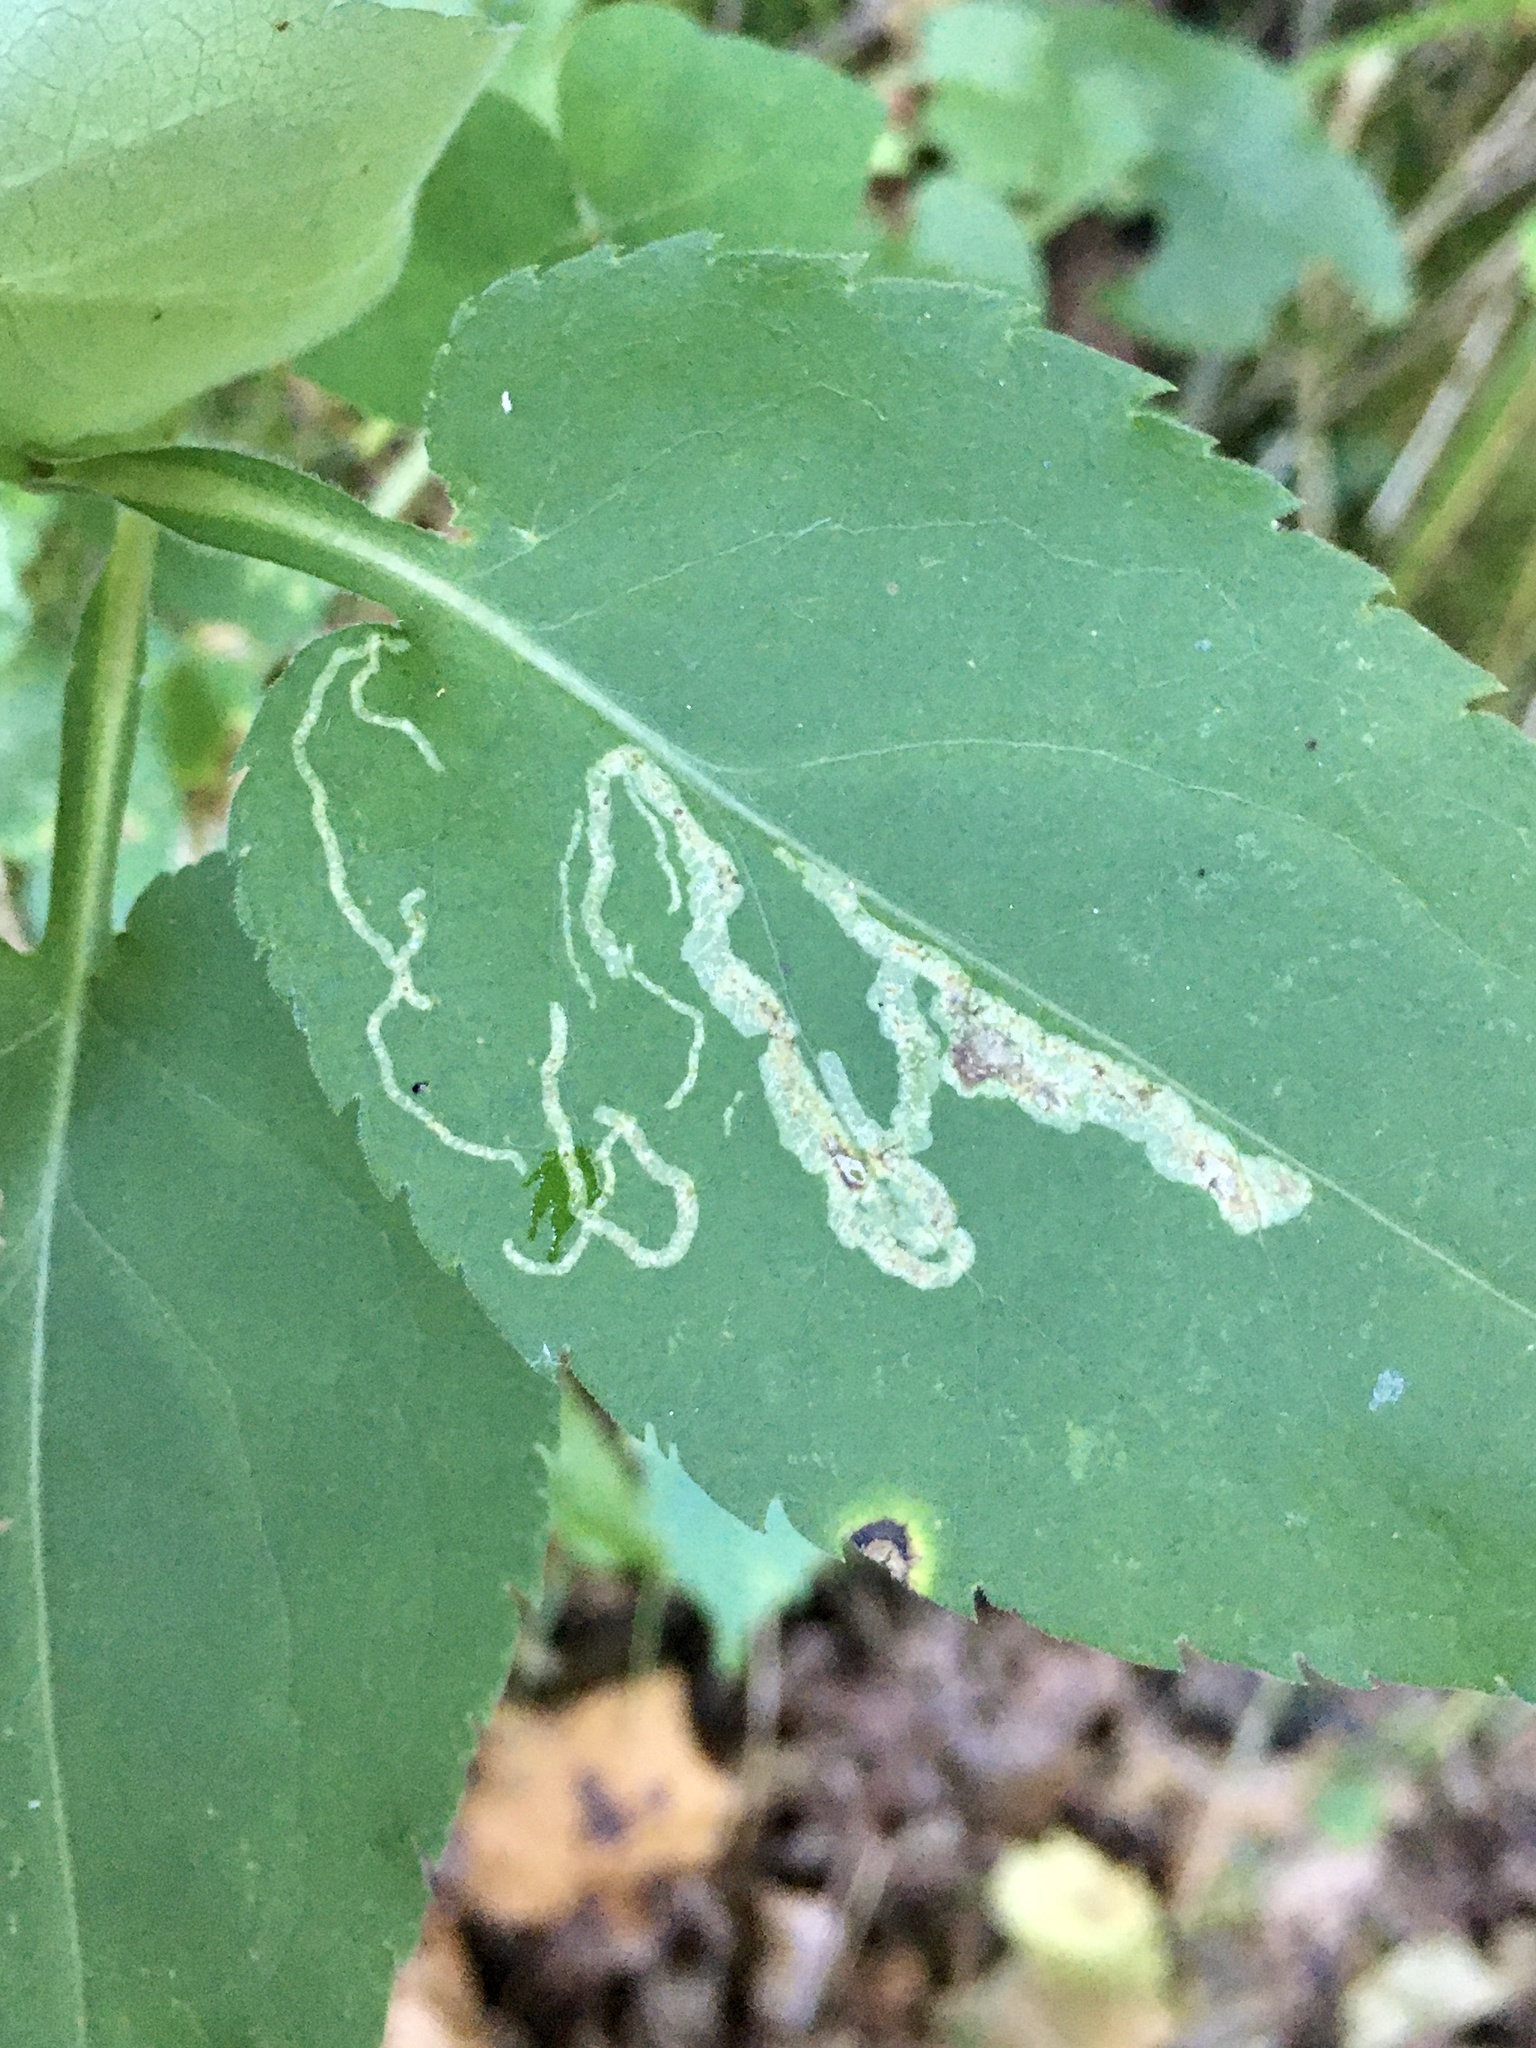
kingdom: Animalia
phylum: Arthropoda
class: Insecta
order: Diptera
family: Agromyzidae
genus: Ophiomyia
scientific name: Ophiomyia carolinensis
